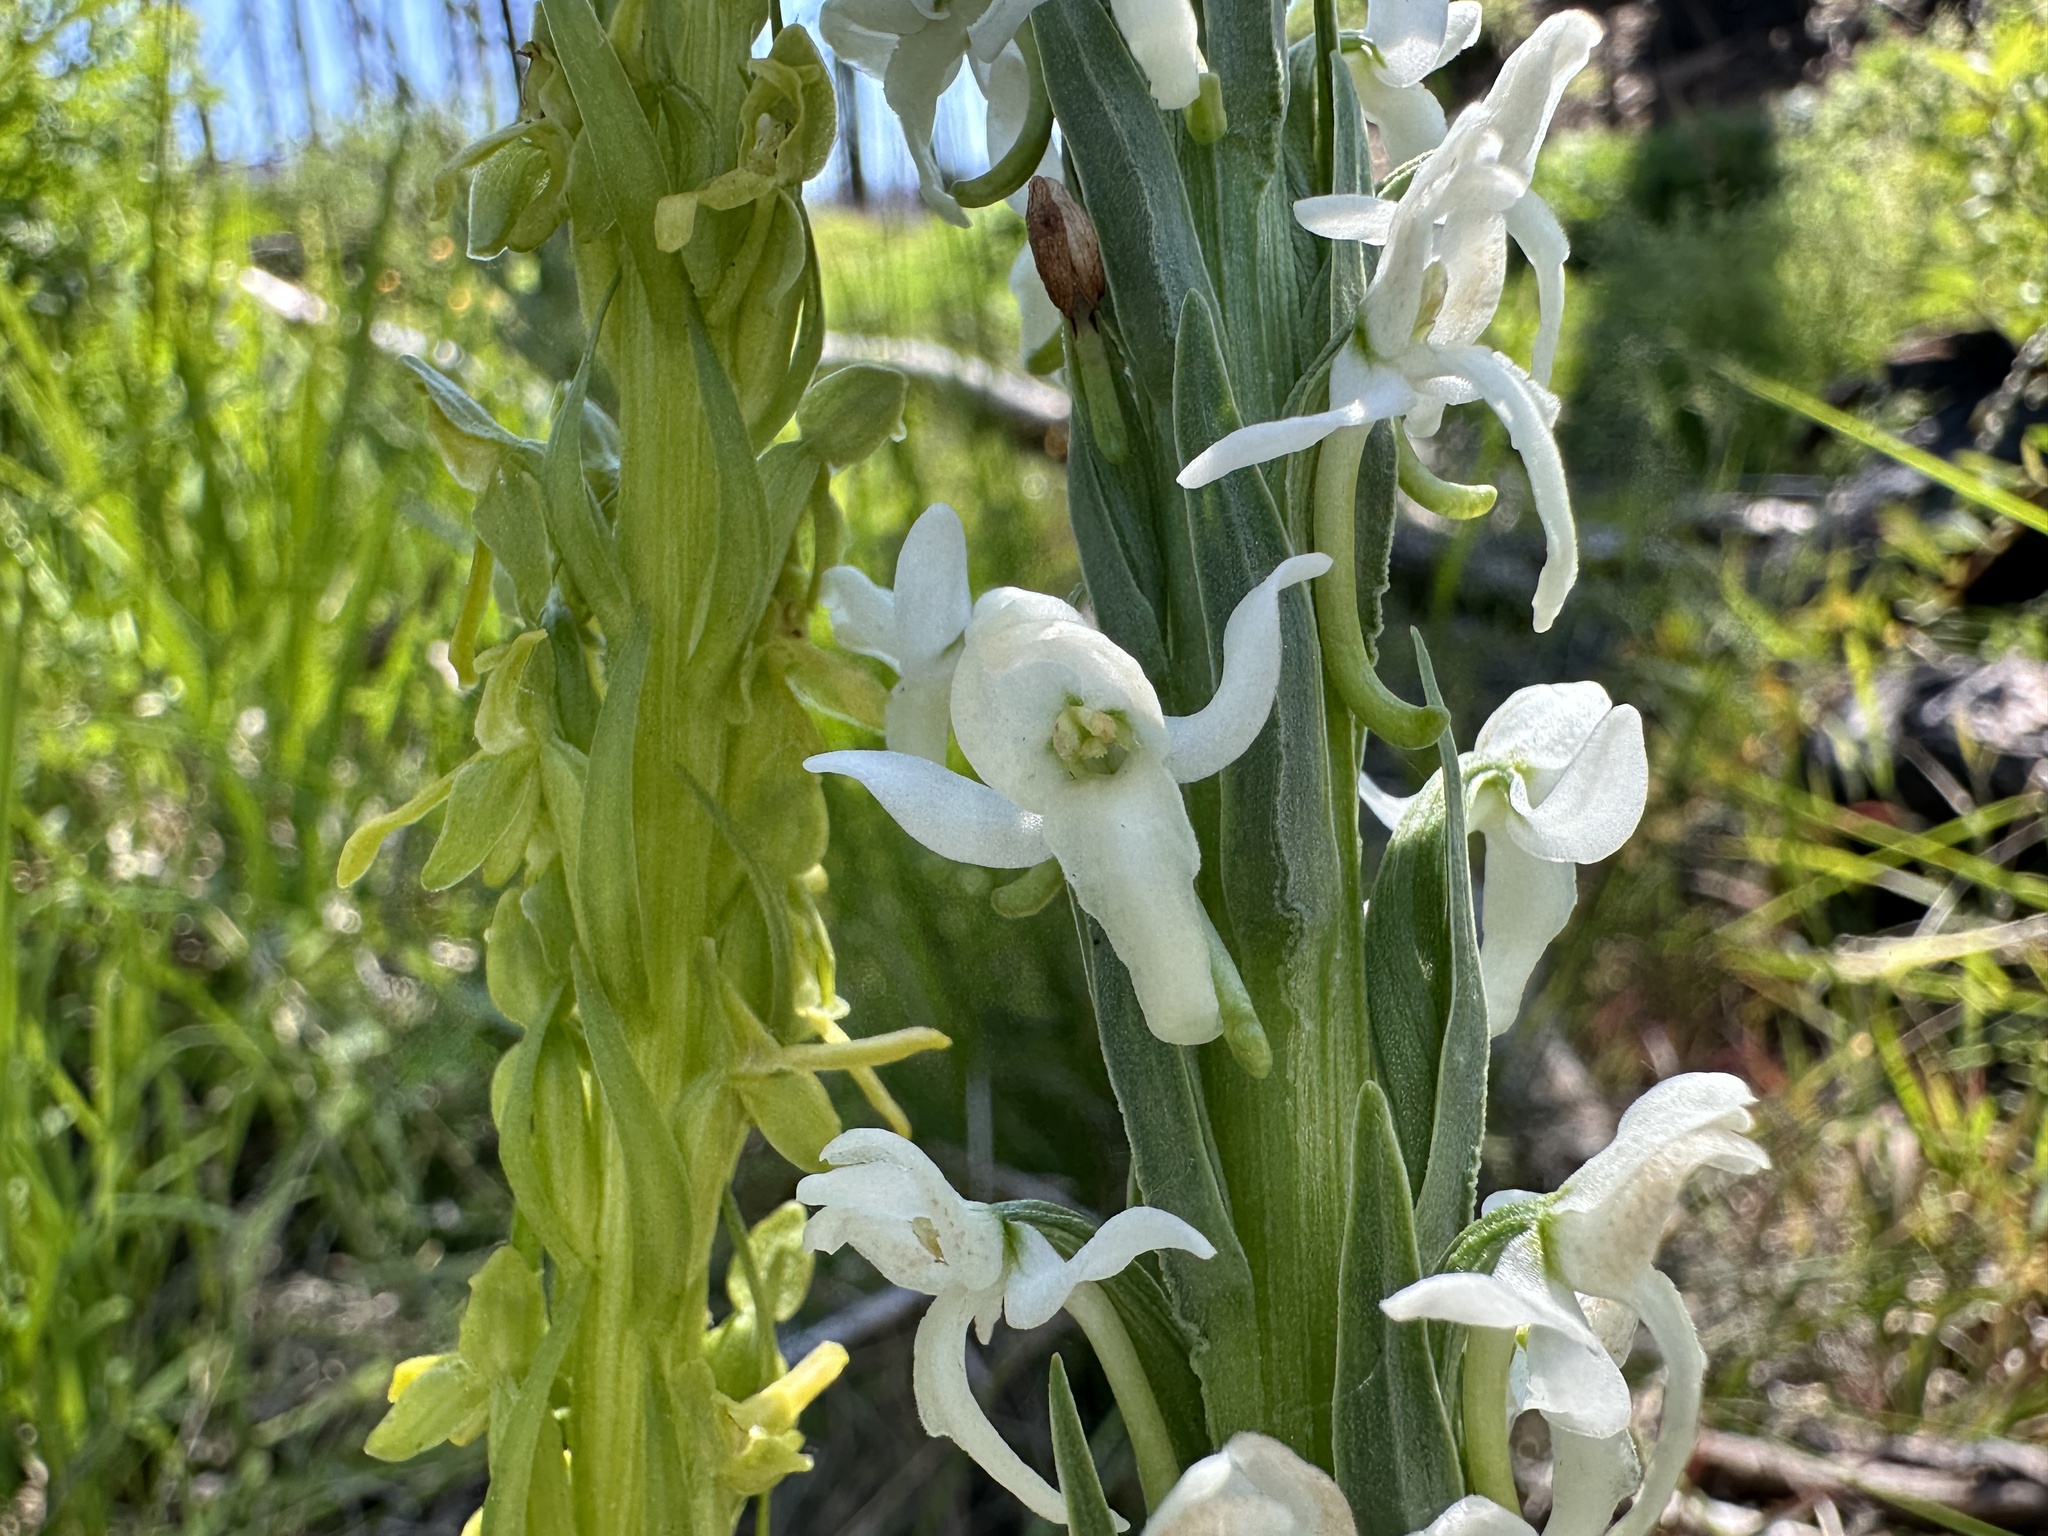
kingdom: Plantae
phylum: Tracheophyta
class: Liliopsida
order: Asparagales
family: Orchidaceae
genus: Platanthera
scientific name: Platanthera dilatata
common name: Bog candles
